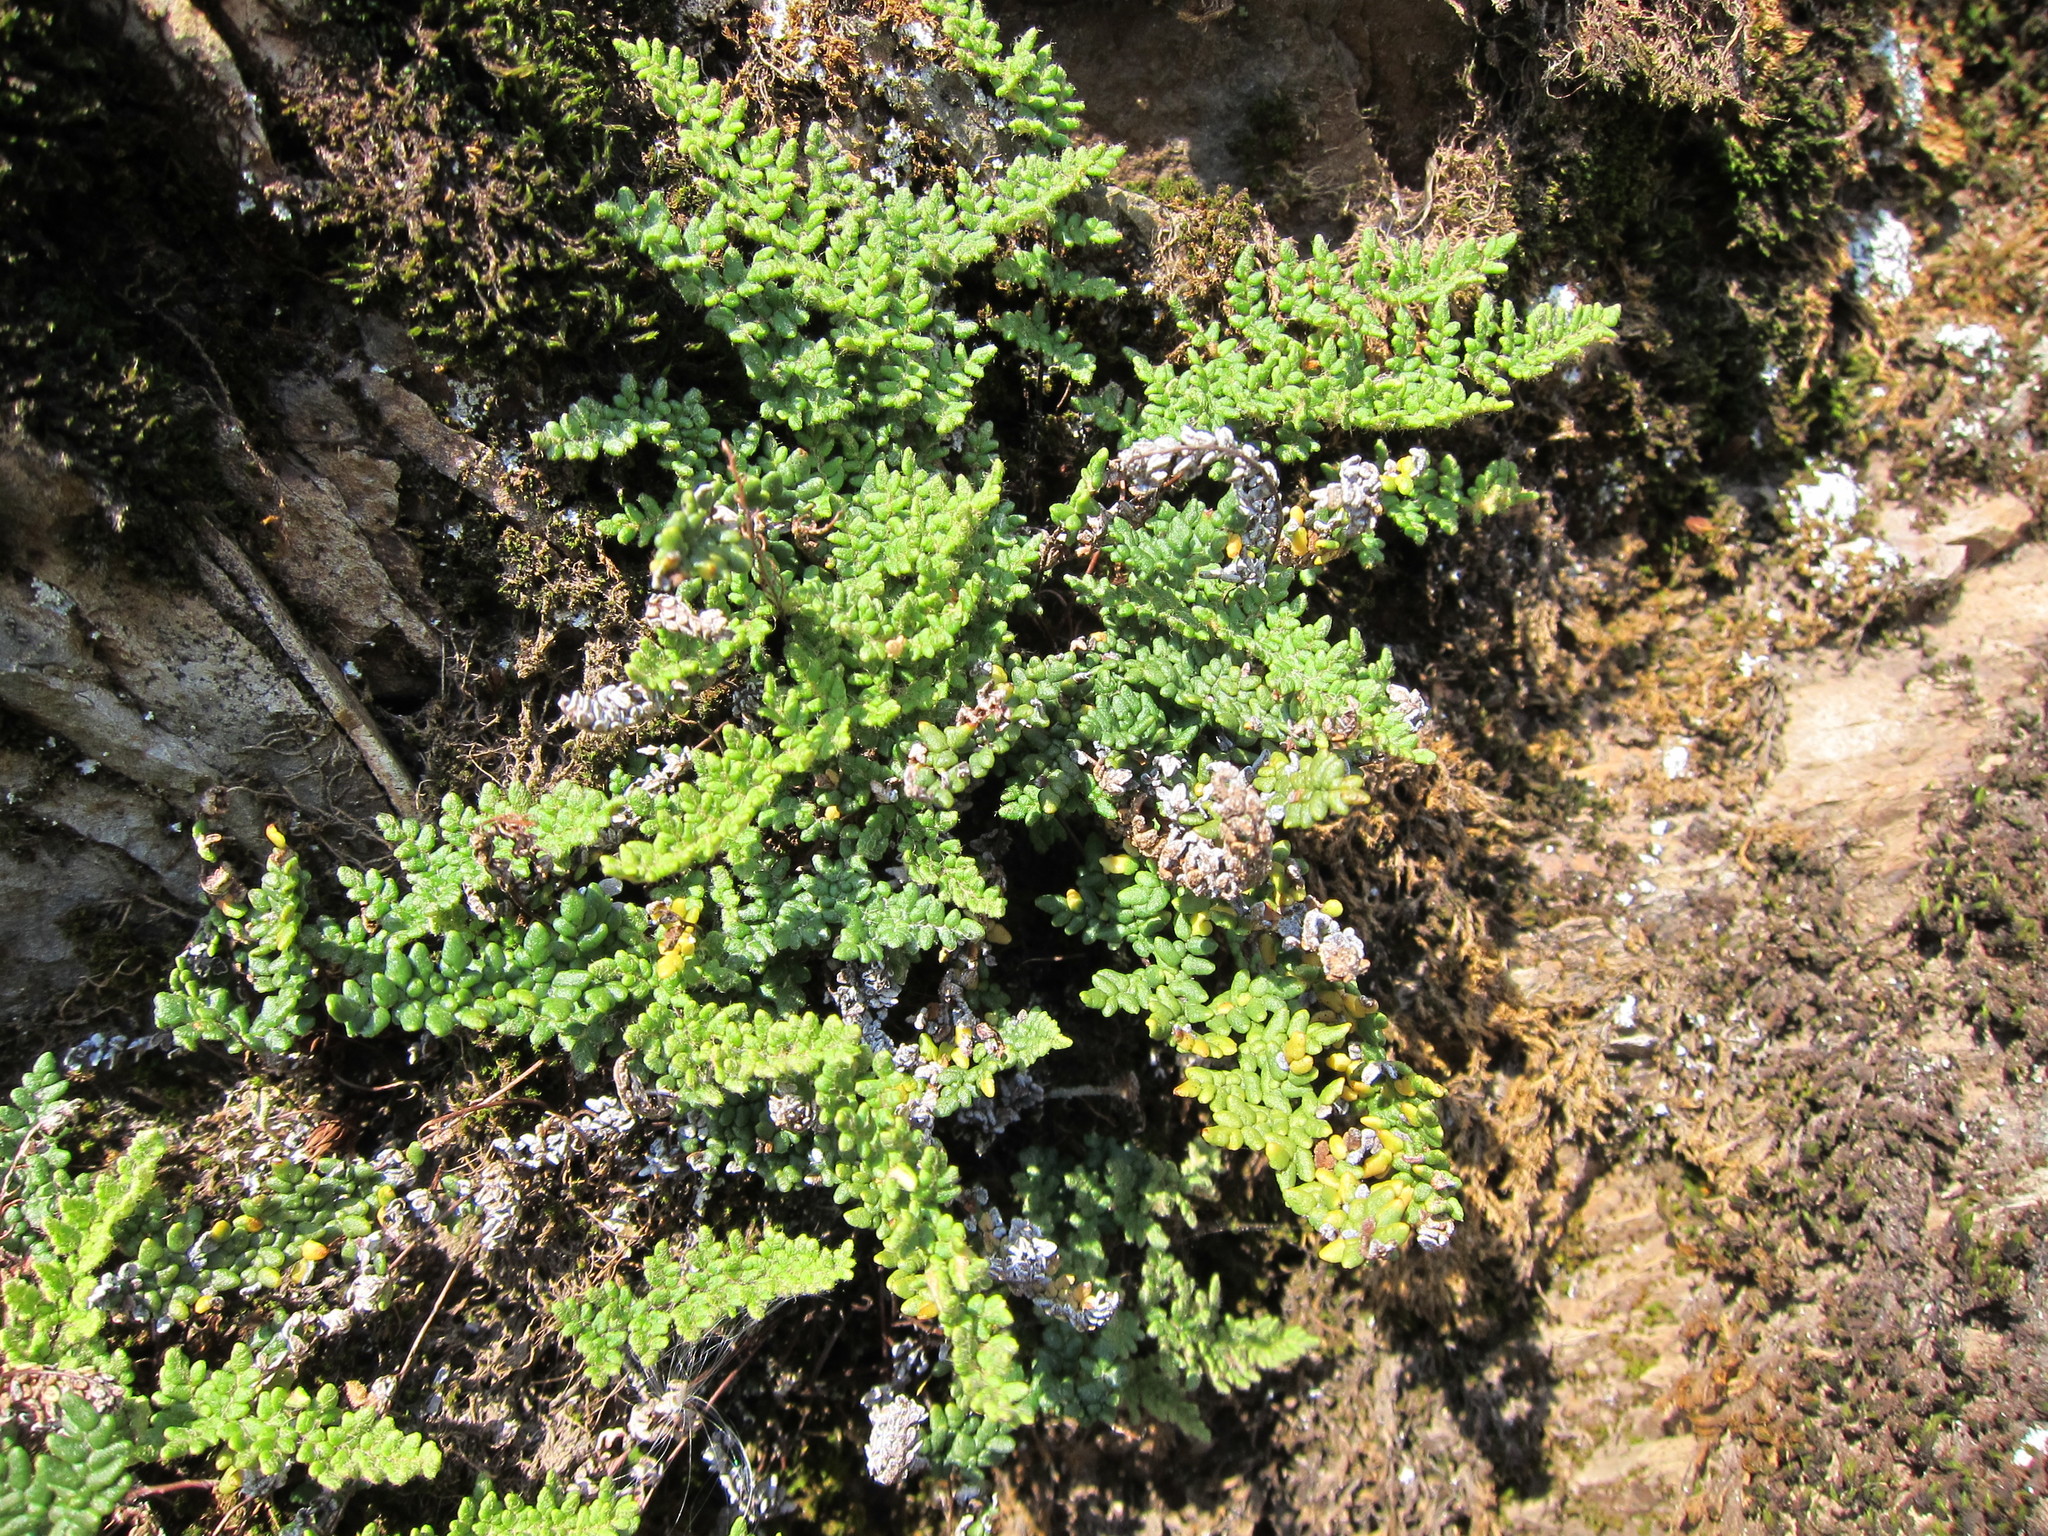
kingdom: Plantae
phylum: Tracheophyta
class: Polypodiopsida
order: Polypodiales
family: Pteridaceae
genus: Myriopteris
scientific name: Myriopteris gracillima
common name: Lace fern
